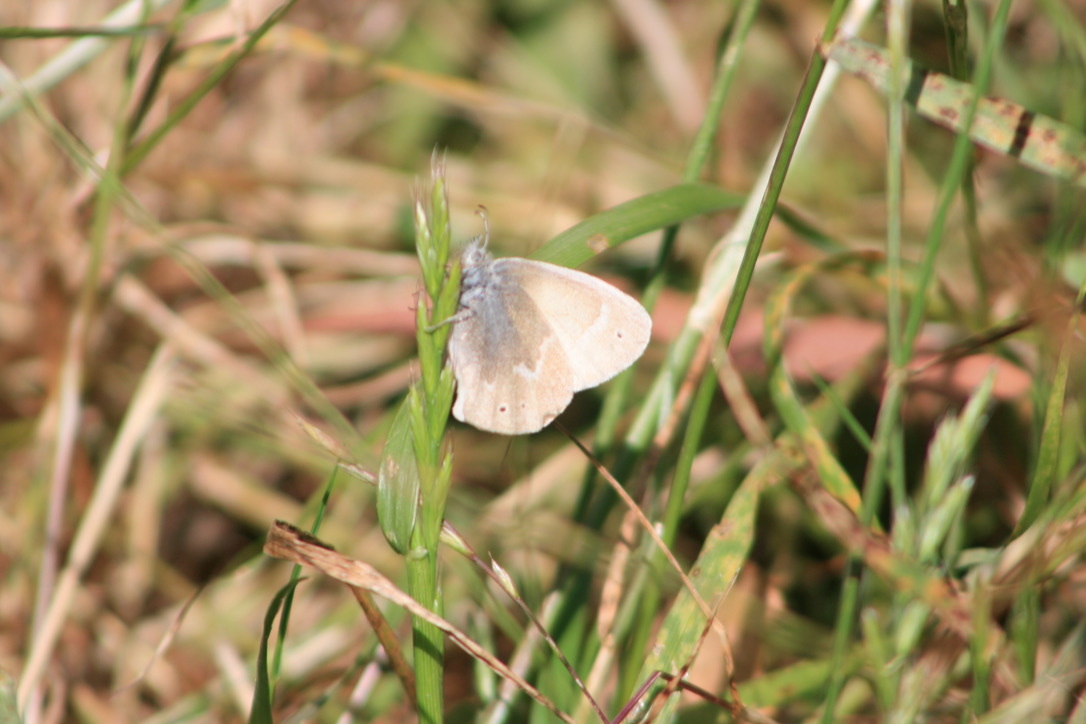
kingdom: Animalia
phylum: Arthropoda
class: Insecta
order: Lepidoptera
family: Nymphalidae
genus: Coenonympha
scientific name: Coenonympha california
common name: Common ringlet
